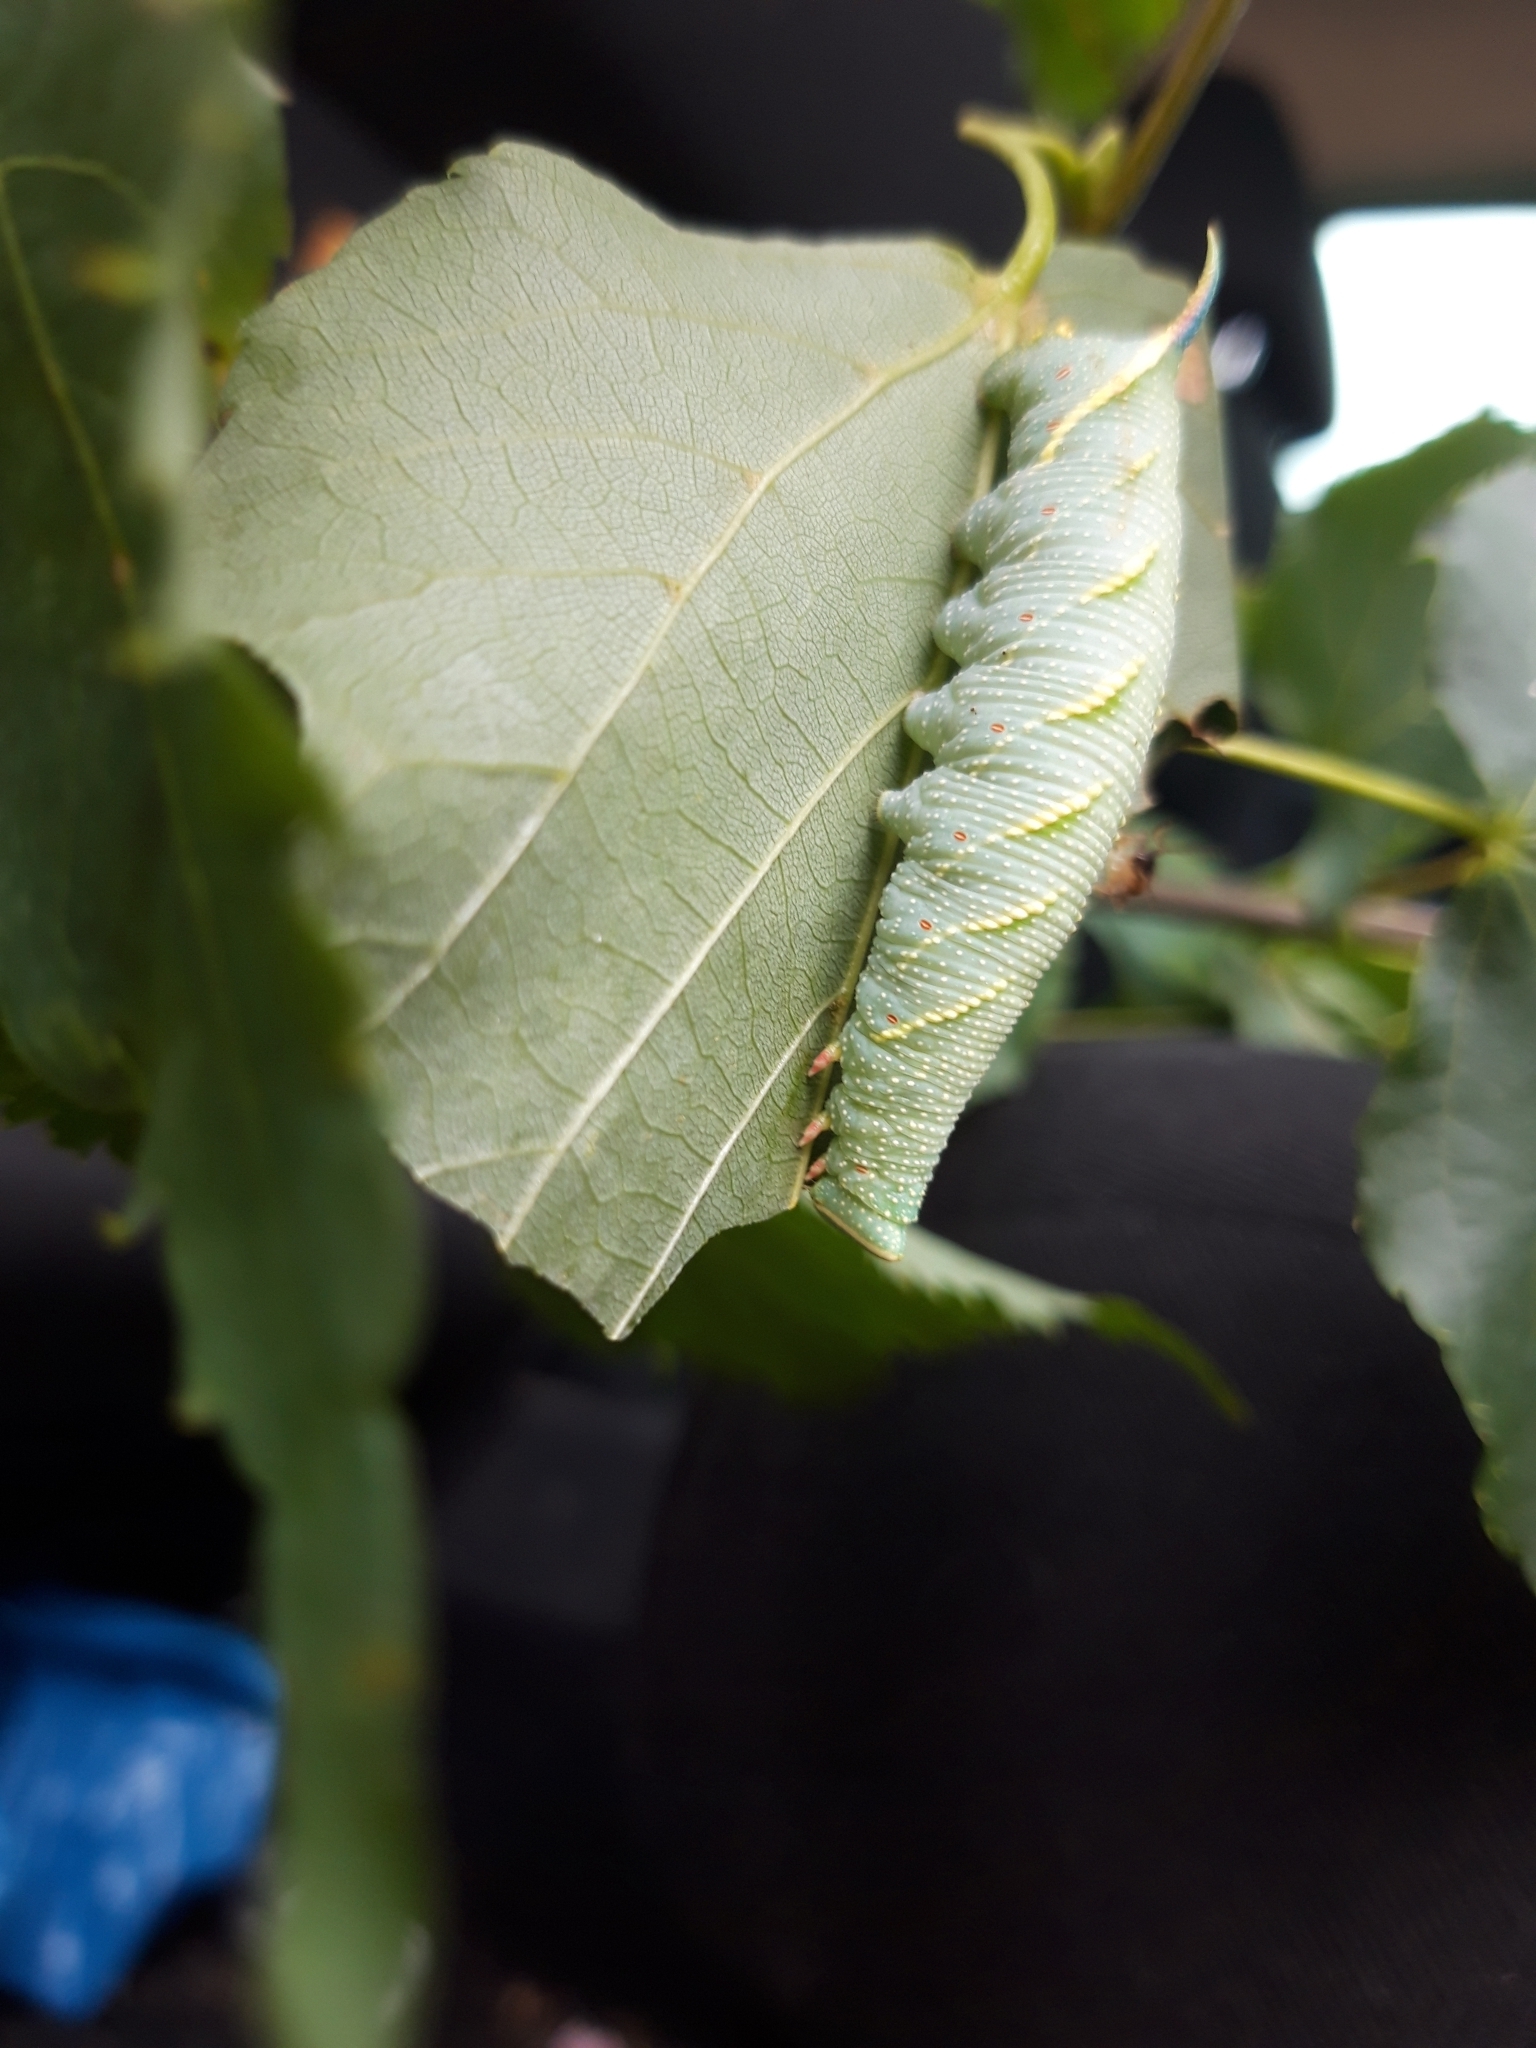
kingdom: Animalia
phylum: Arthropoda
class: Insecta
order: Lepidoptera
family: Sphingidae
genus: Mimas
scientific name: Mimas tiliae
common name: Lime hawk-moth
